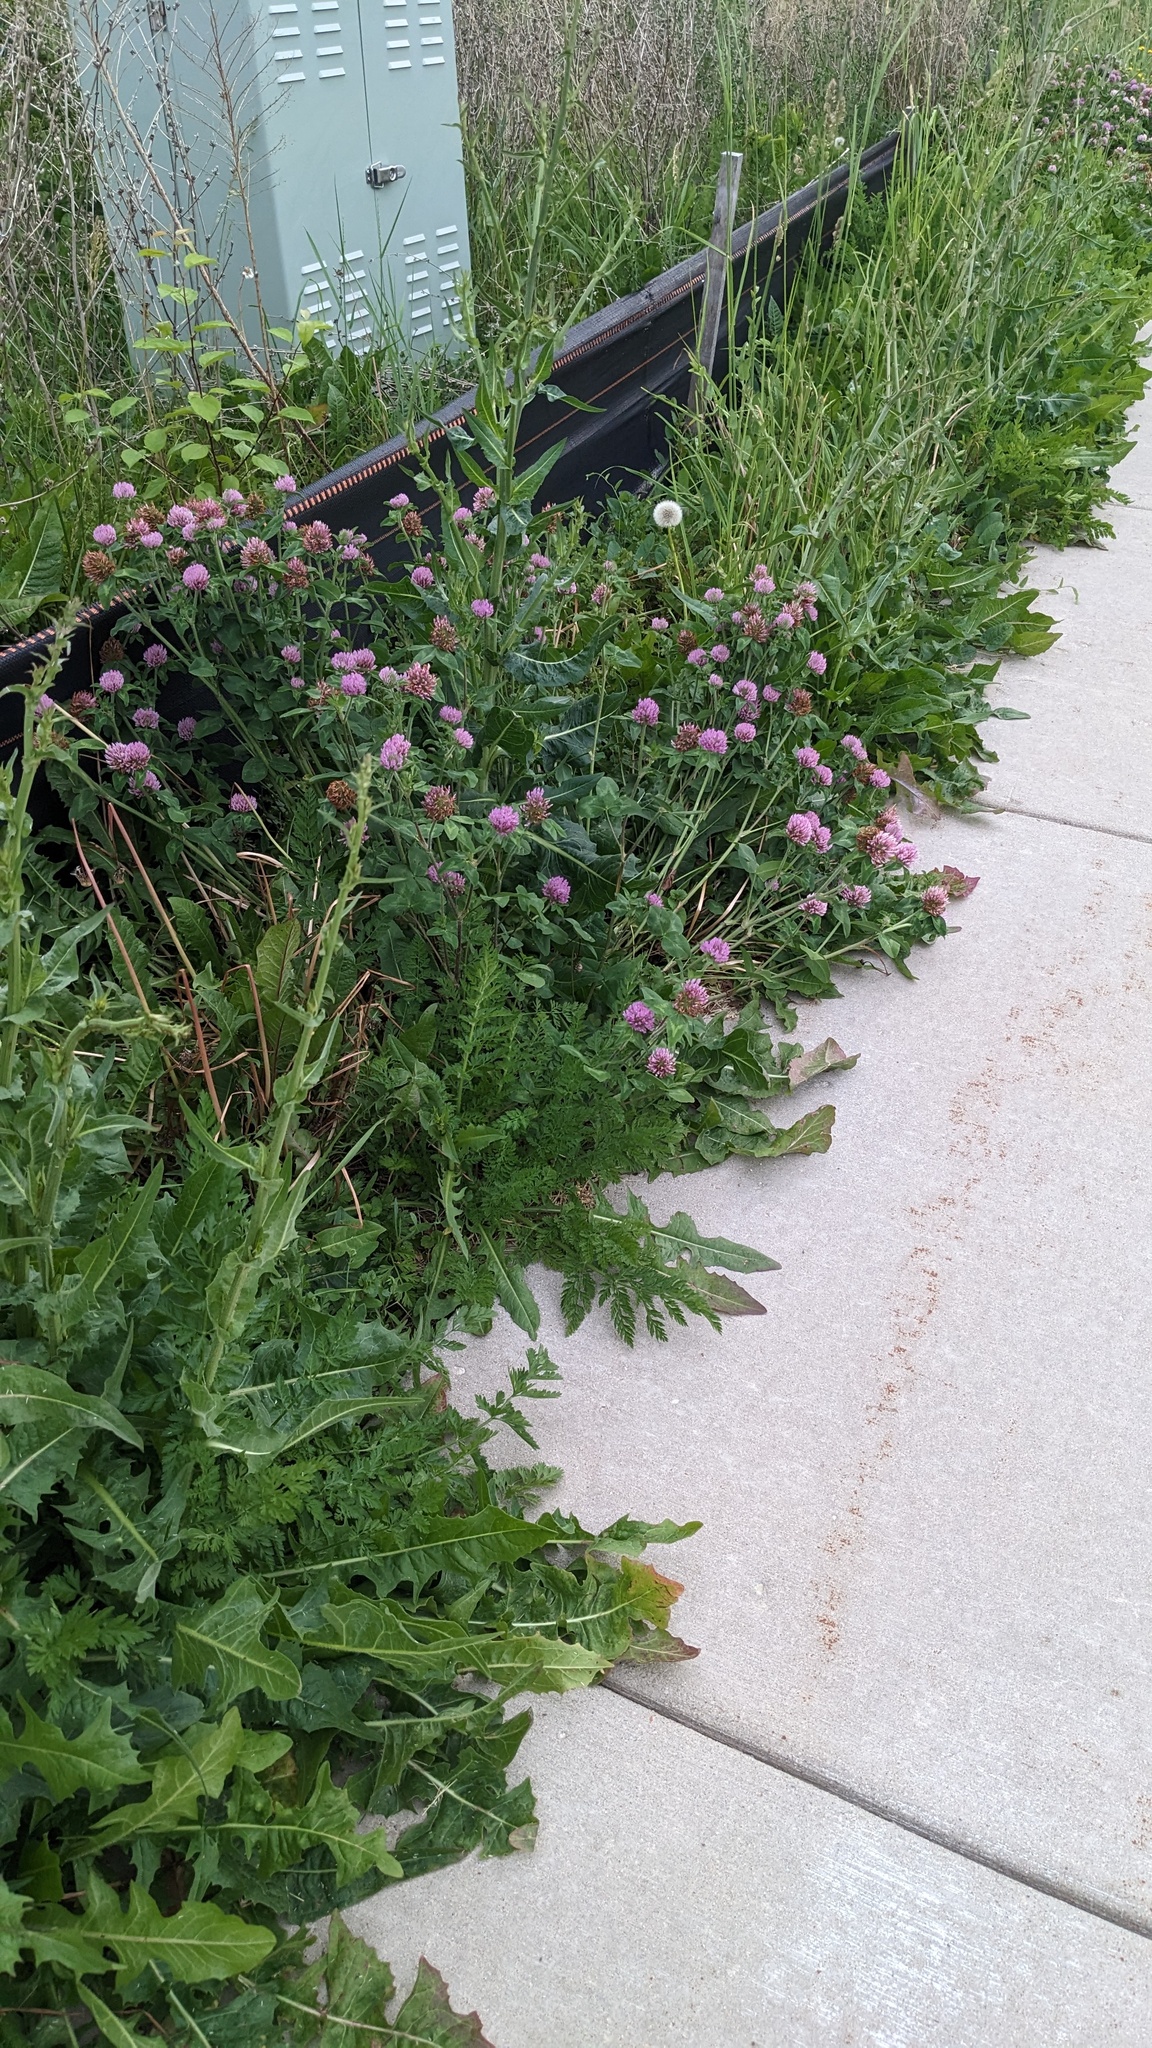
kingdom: Plantae
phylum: Tracheophyta
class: Magnoliopsida
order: Fabales
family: Fabaceae
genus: Trifolium
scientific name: Trifolium pratense
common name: Red clover
